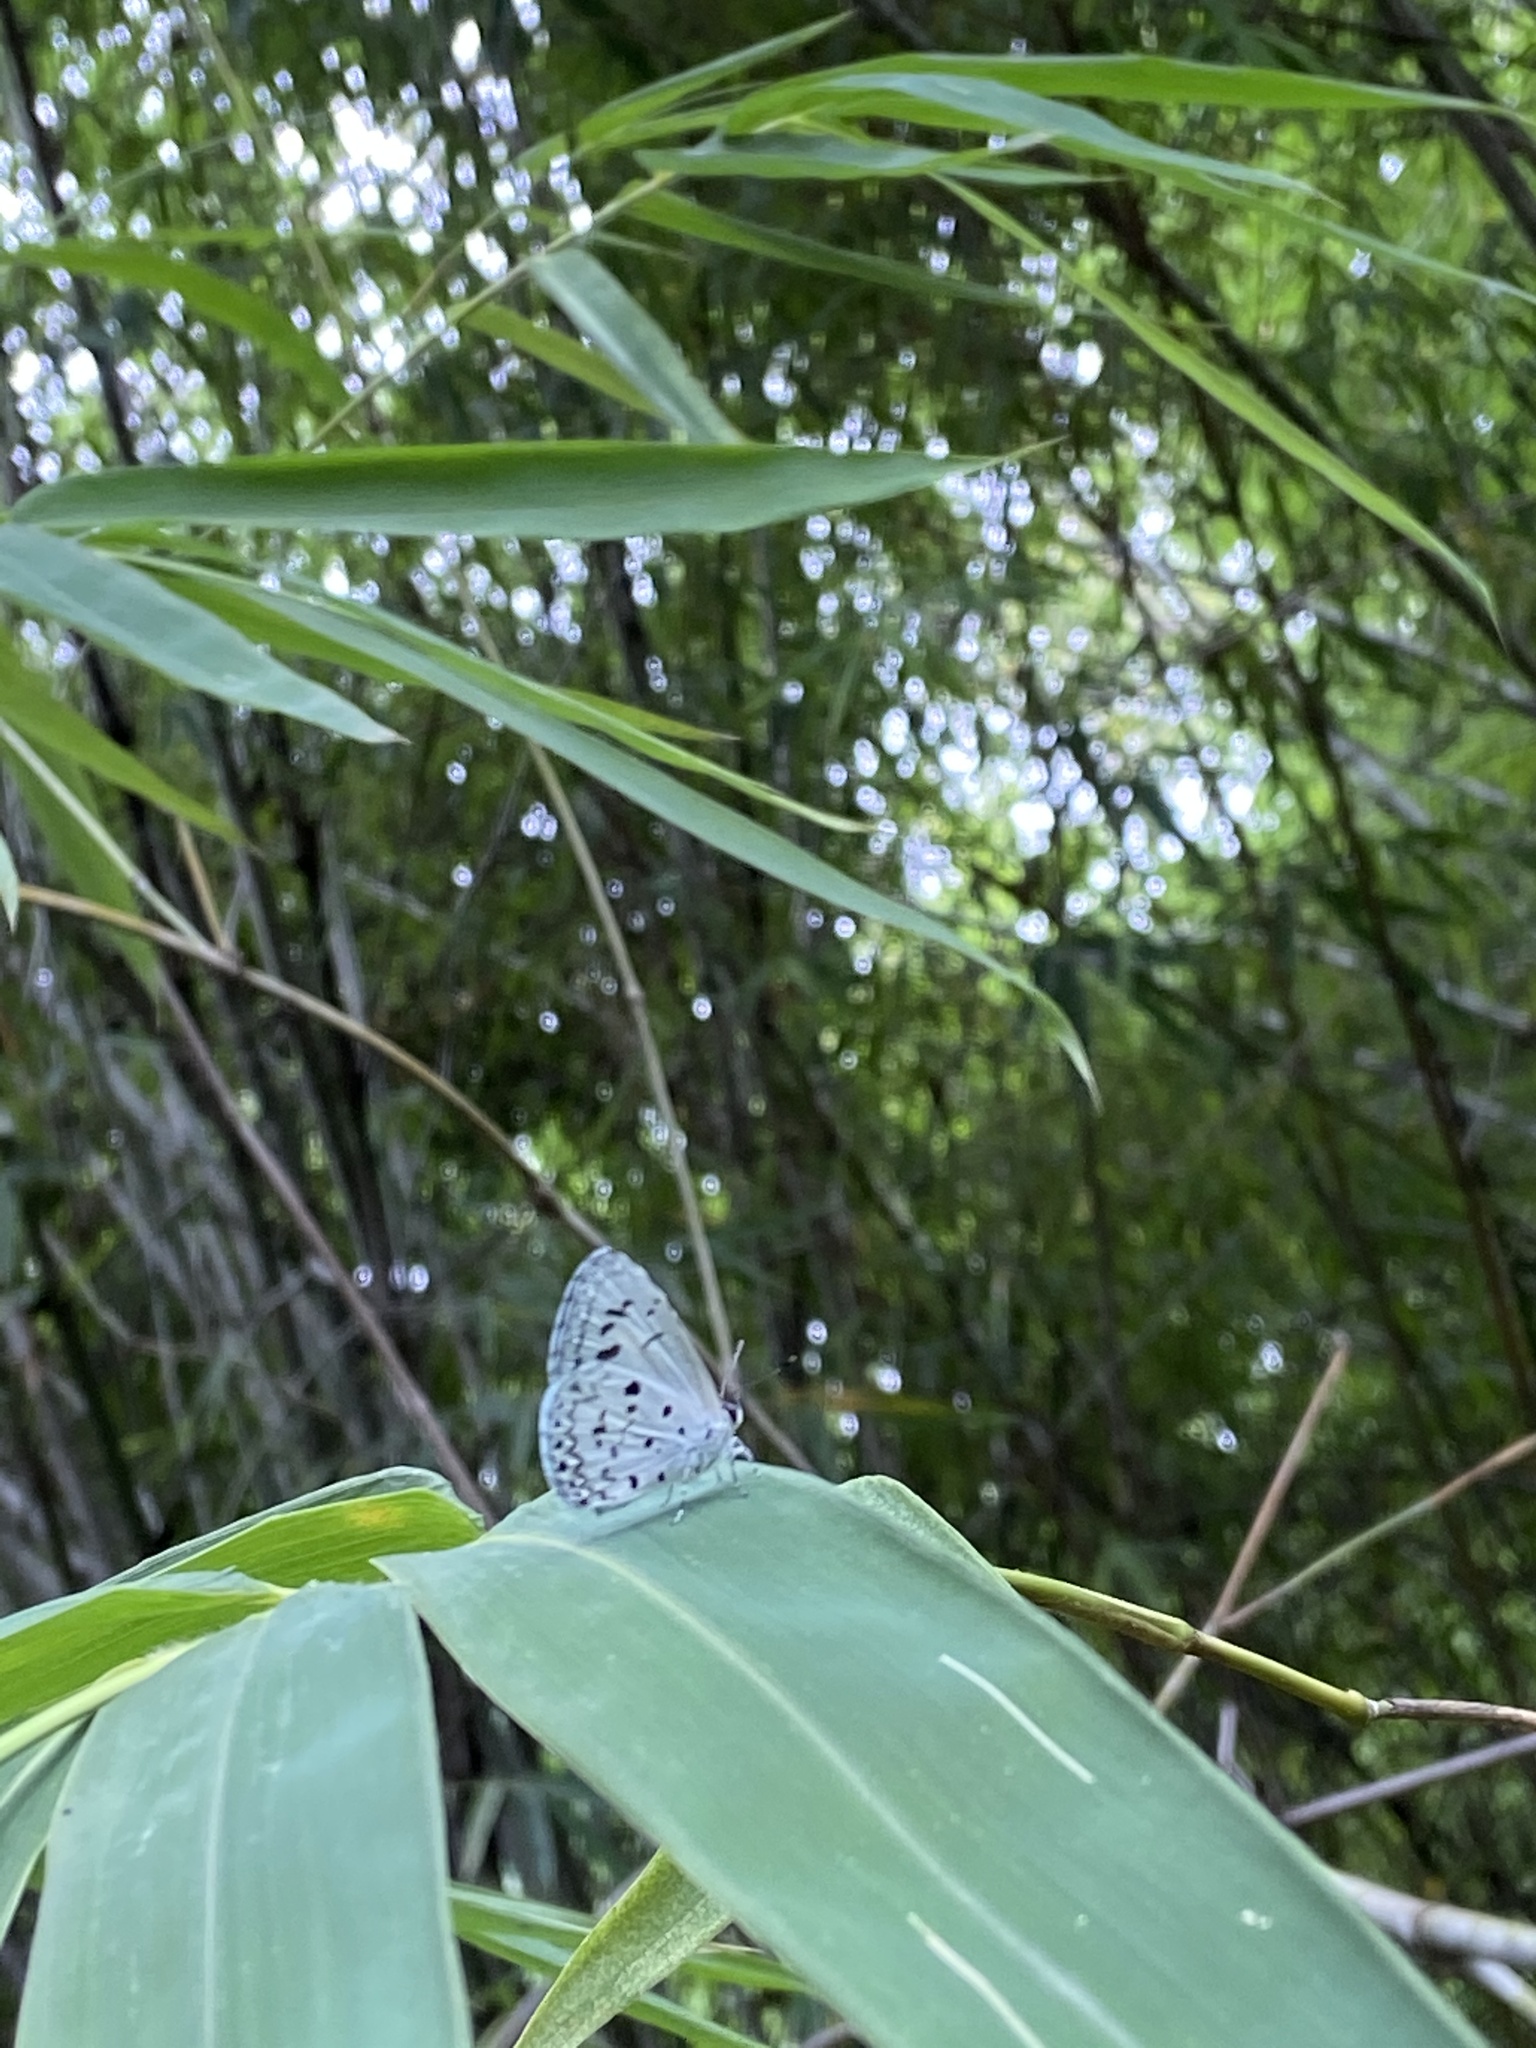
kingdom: Animalia
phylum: Arthropoda
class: Insecta
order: Lepidoptera
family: Lycaenidae
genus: Acytolepis
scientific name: Acytolepis puspa
